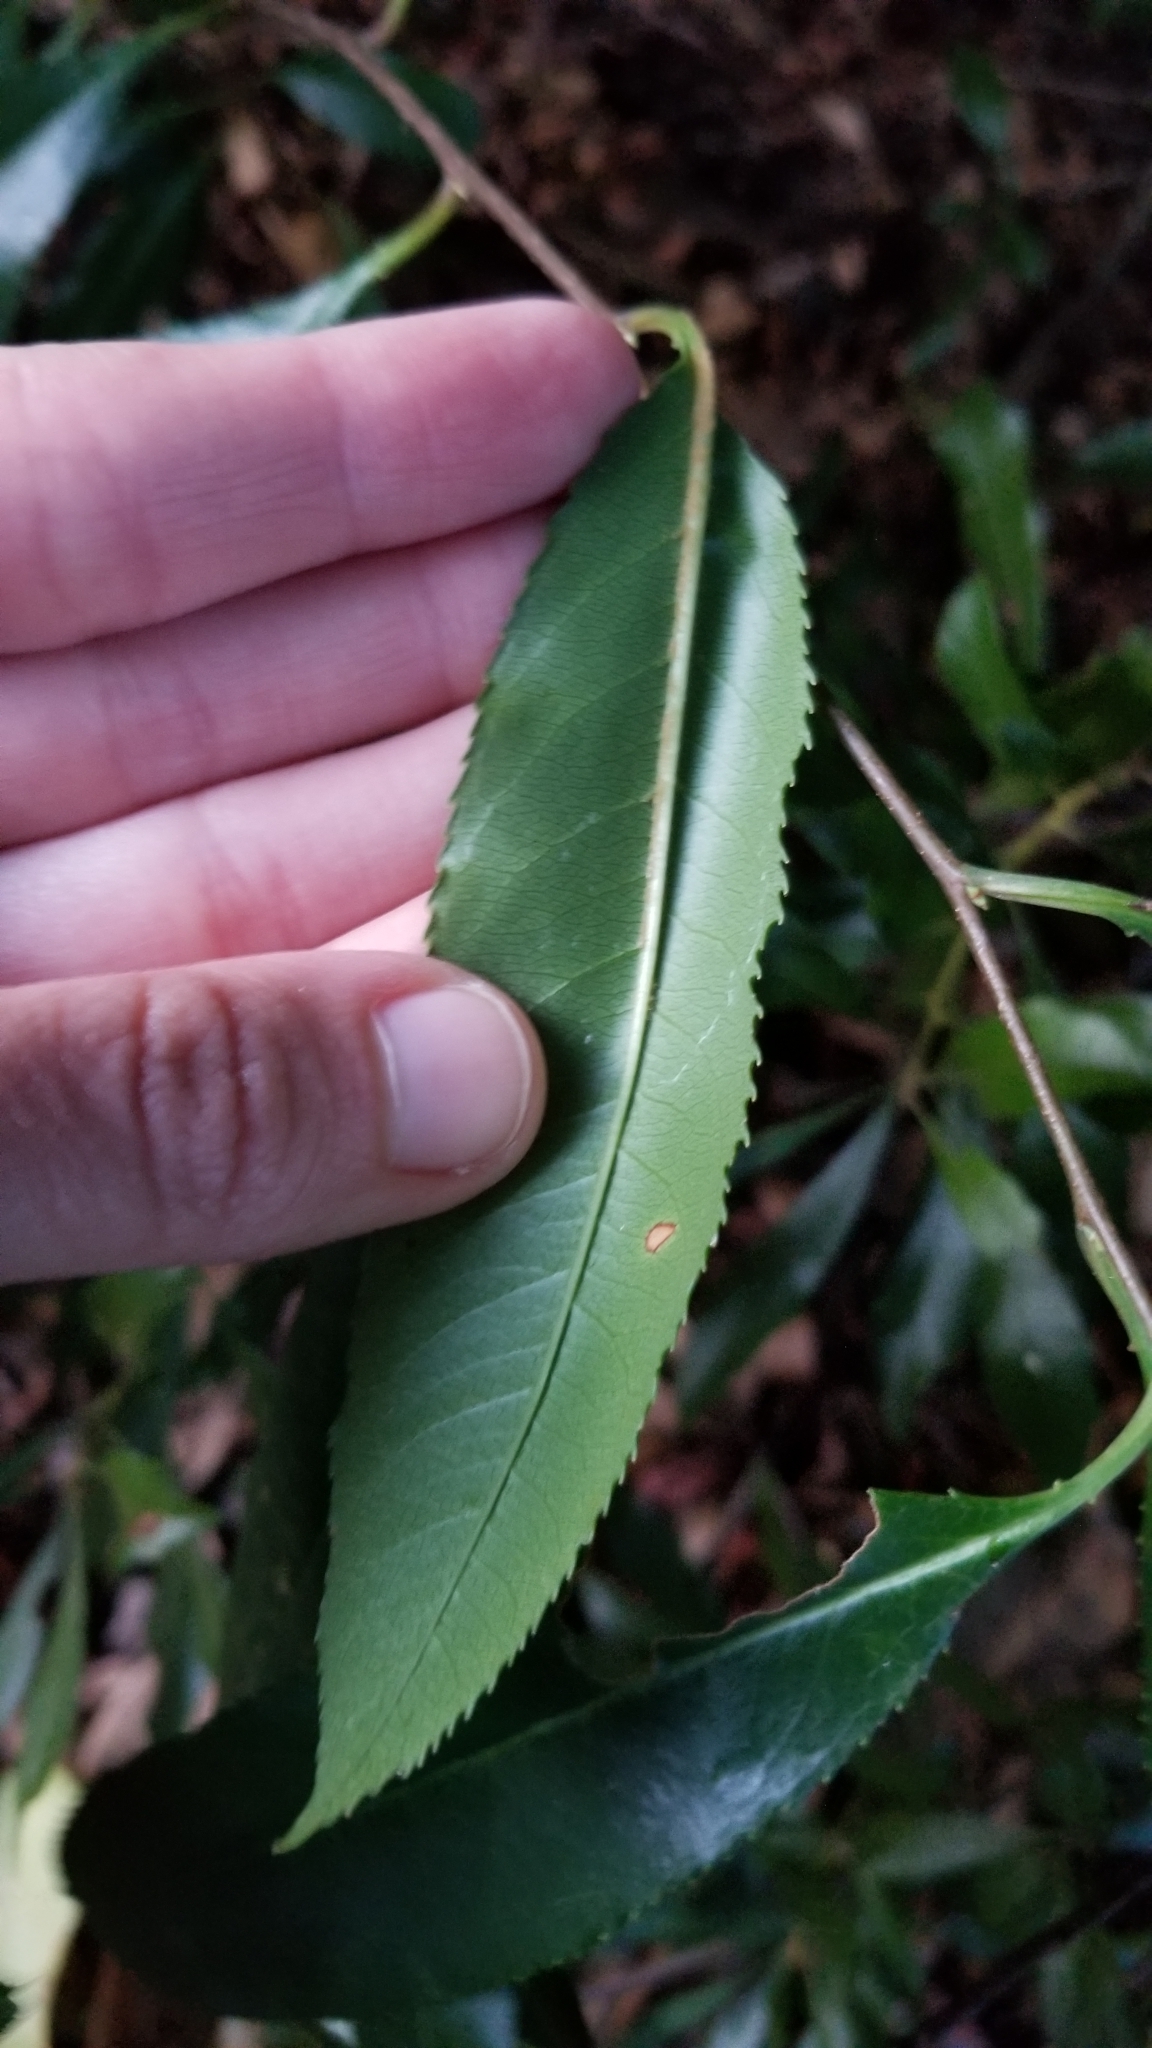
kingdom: Plantae
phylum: Tracheophyta
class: Magnoliopsida
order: Rosales
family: Rosaceae
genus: Prunus
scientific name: Prunus caroliniana
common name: Carolina laurel cherry
